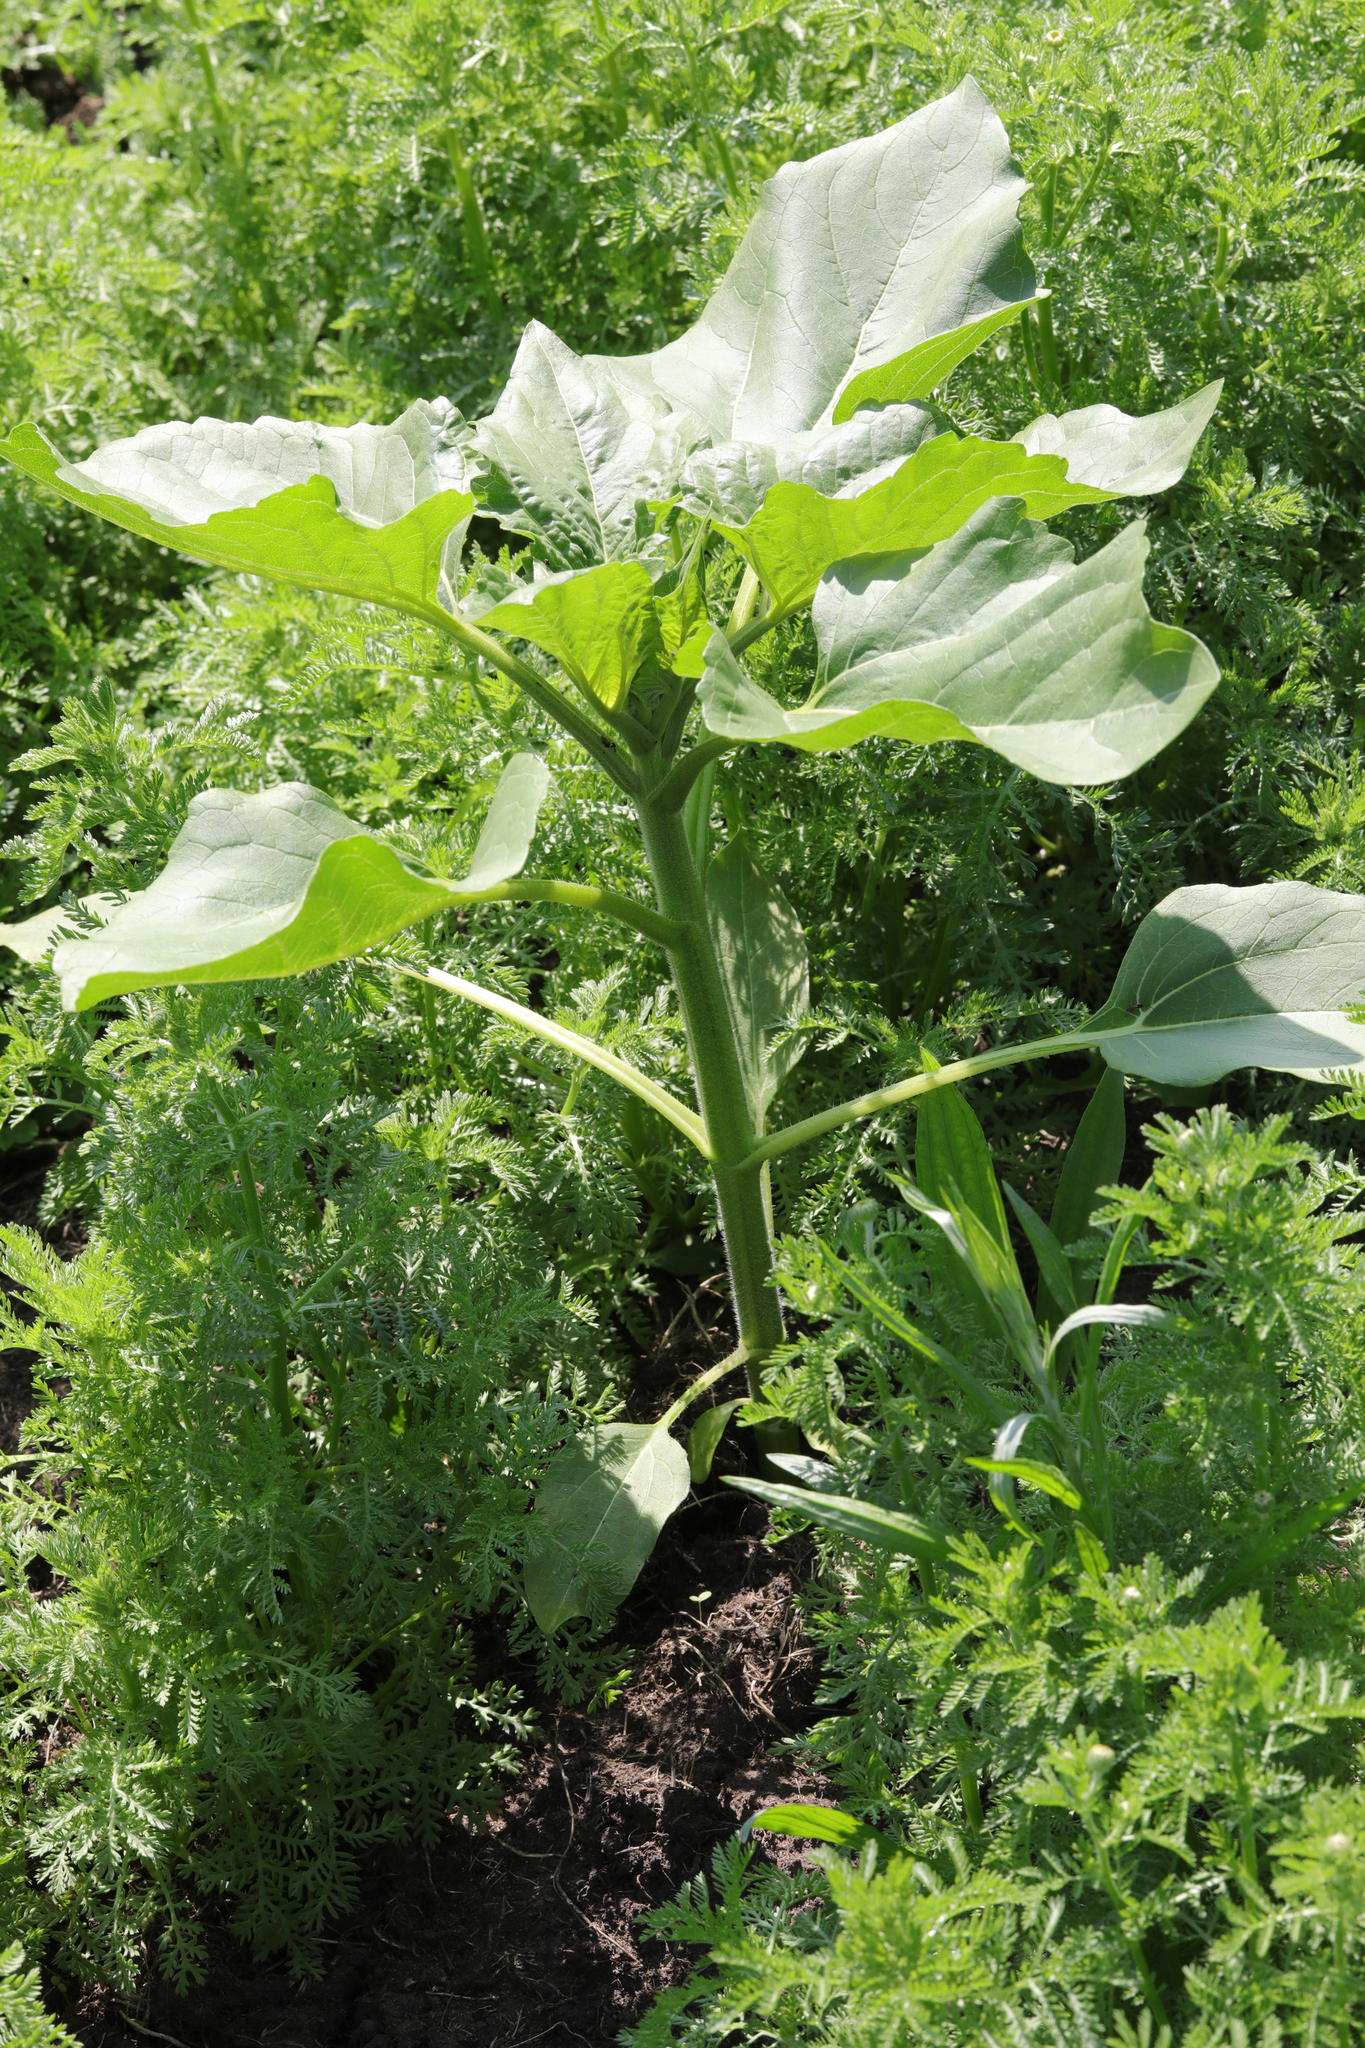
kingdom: Plantae
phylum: Tracheophyta
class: Magnoliopsida
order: Asterales
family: Asteraceae
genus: Helianthus
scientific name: Helianthus annuus
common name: Sunflower
